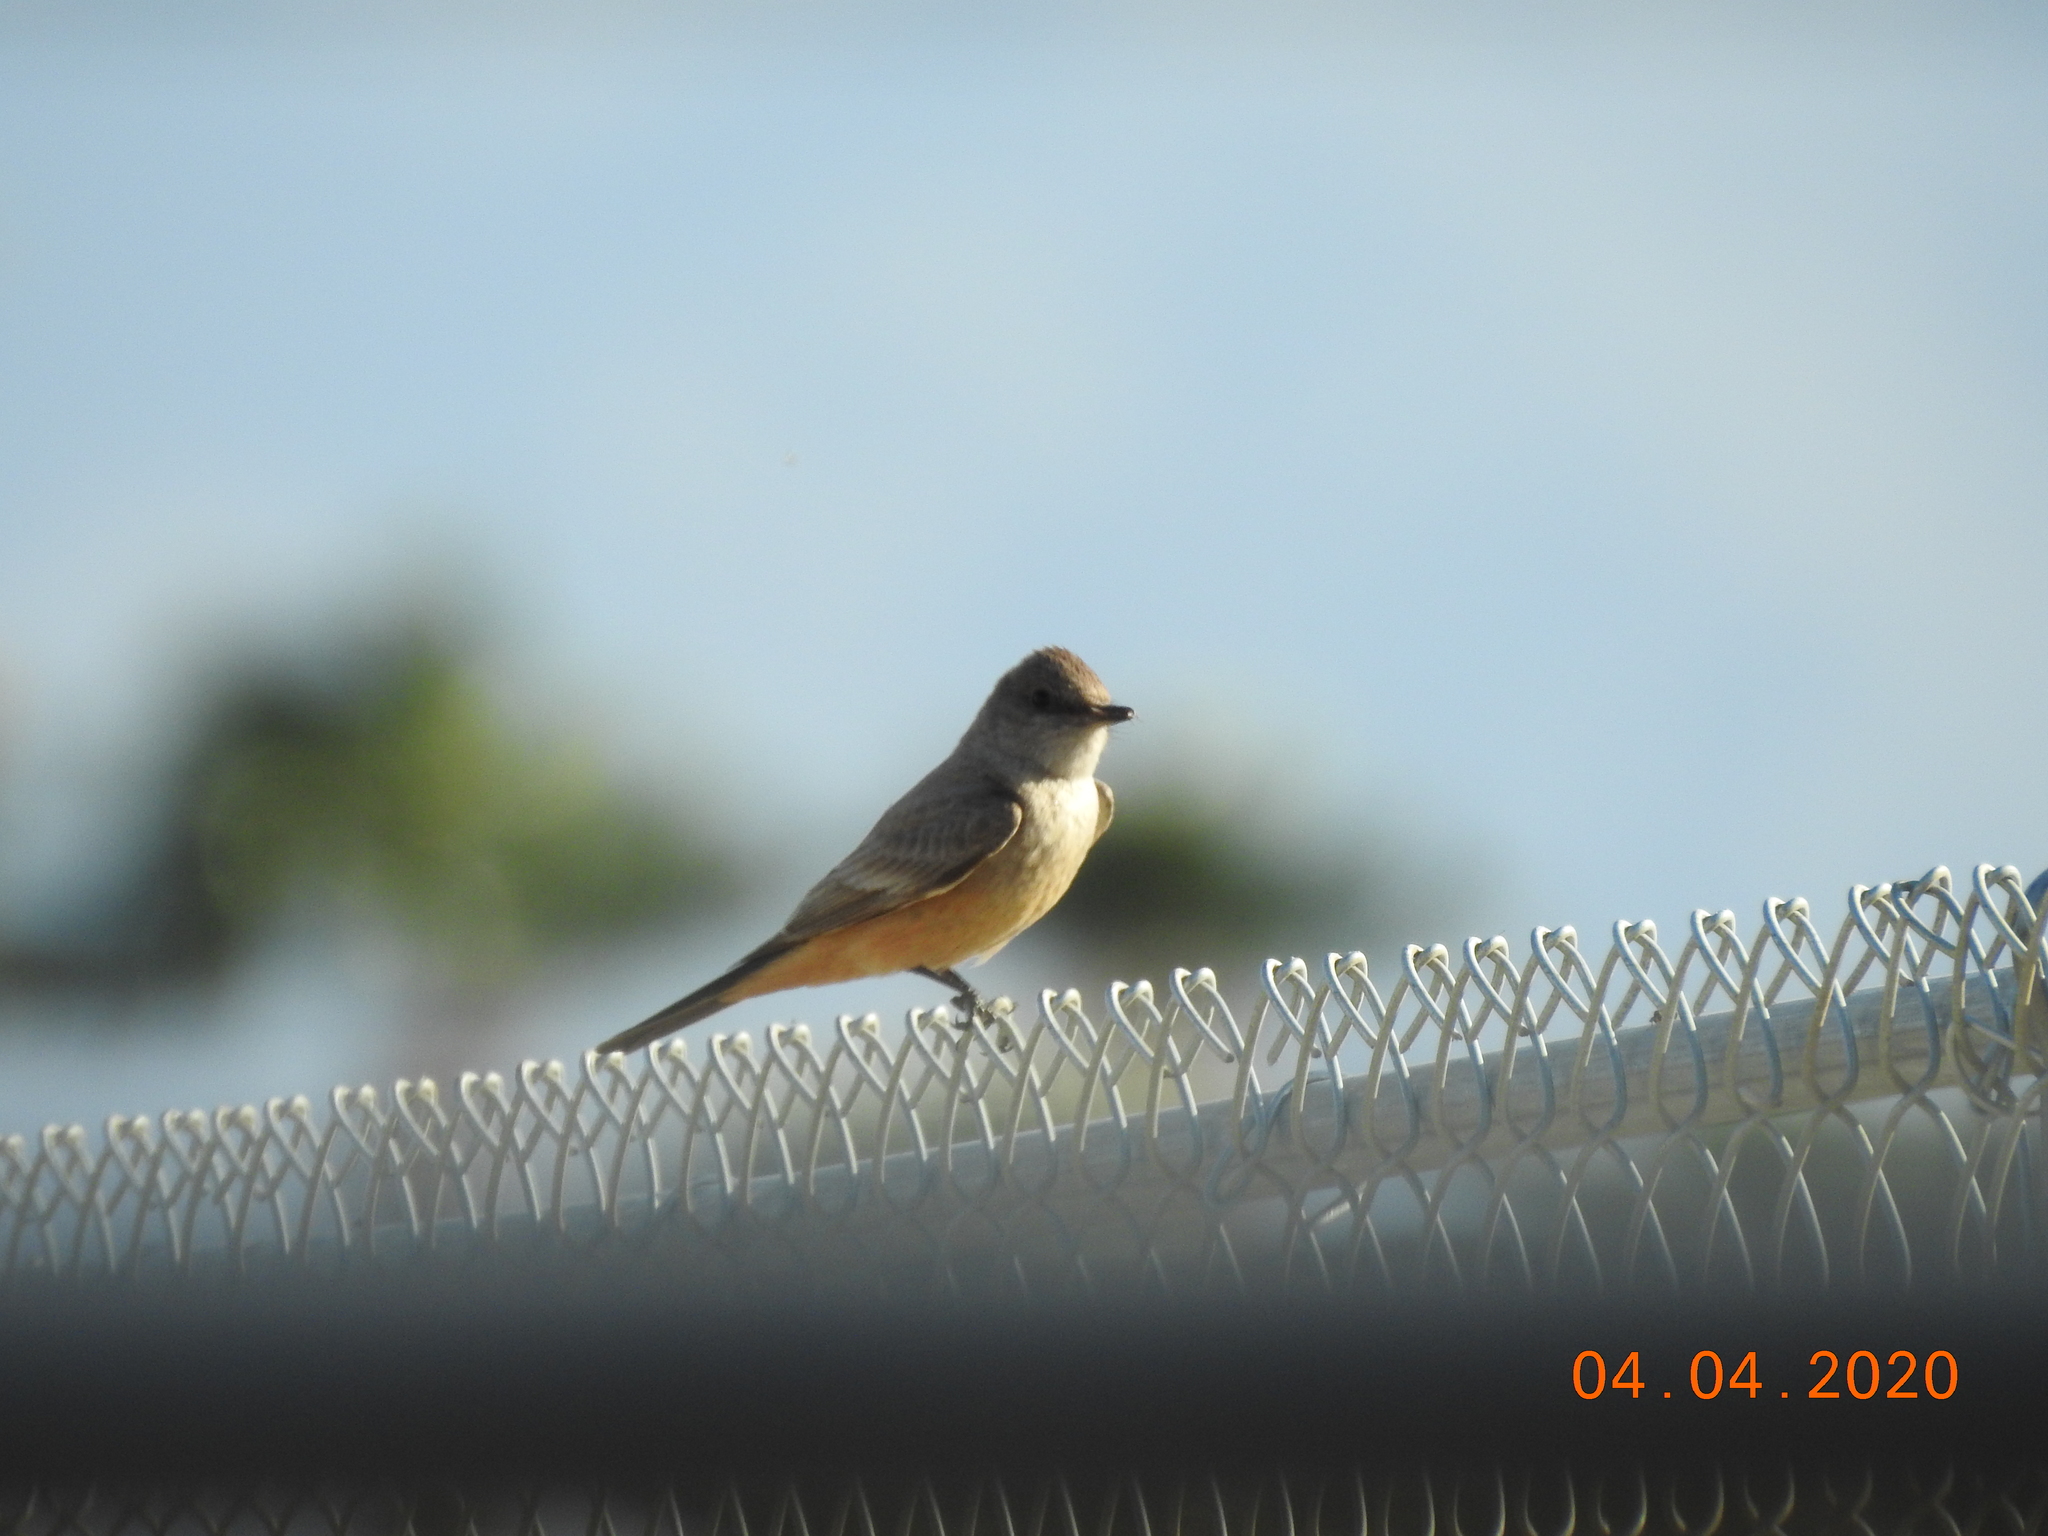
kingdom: Animalia
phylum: Chordata
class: Aves
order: Passeriformes
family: Tyrannidae
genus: Sayornis
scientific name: Sayornis saya
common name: Say's phoebe
